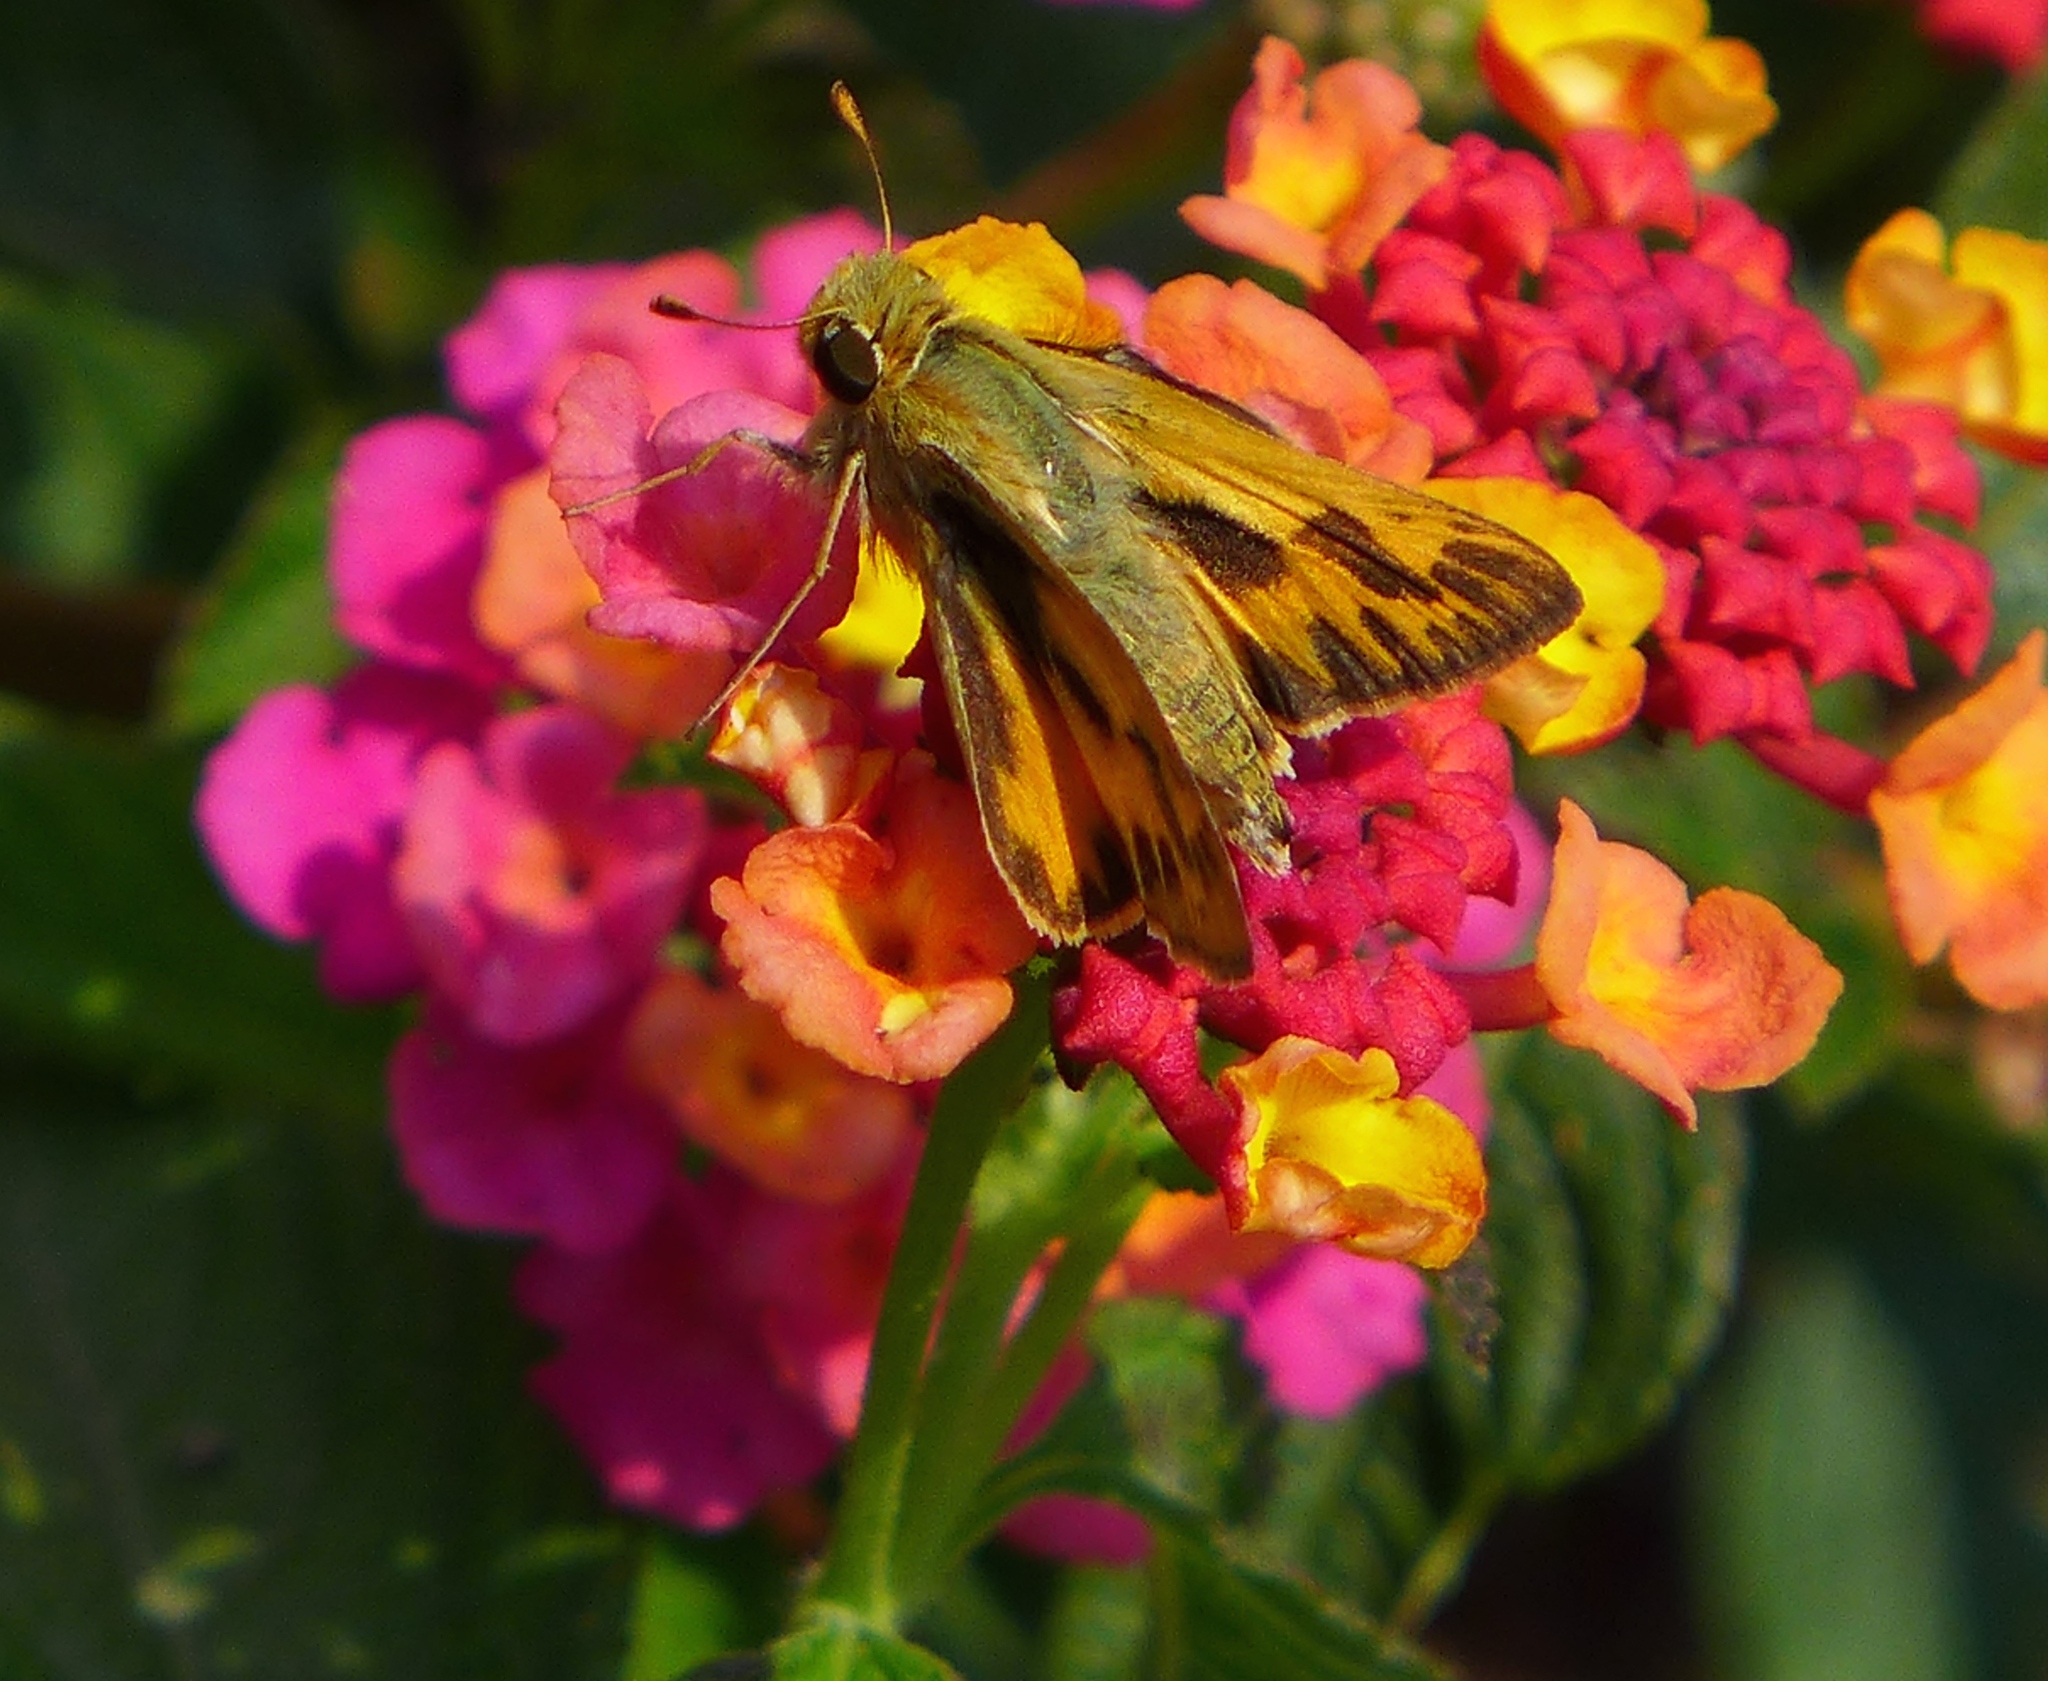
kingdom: Animalia
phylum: Arthropoda
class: Insecta
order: Lepidoptera
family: Hesperiidae
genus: Hylephila
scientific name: Hylephila phyleus
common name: Fiery skipper
